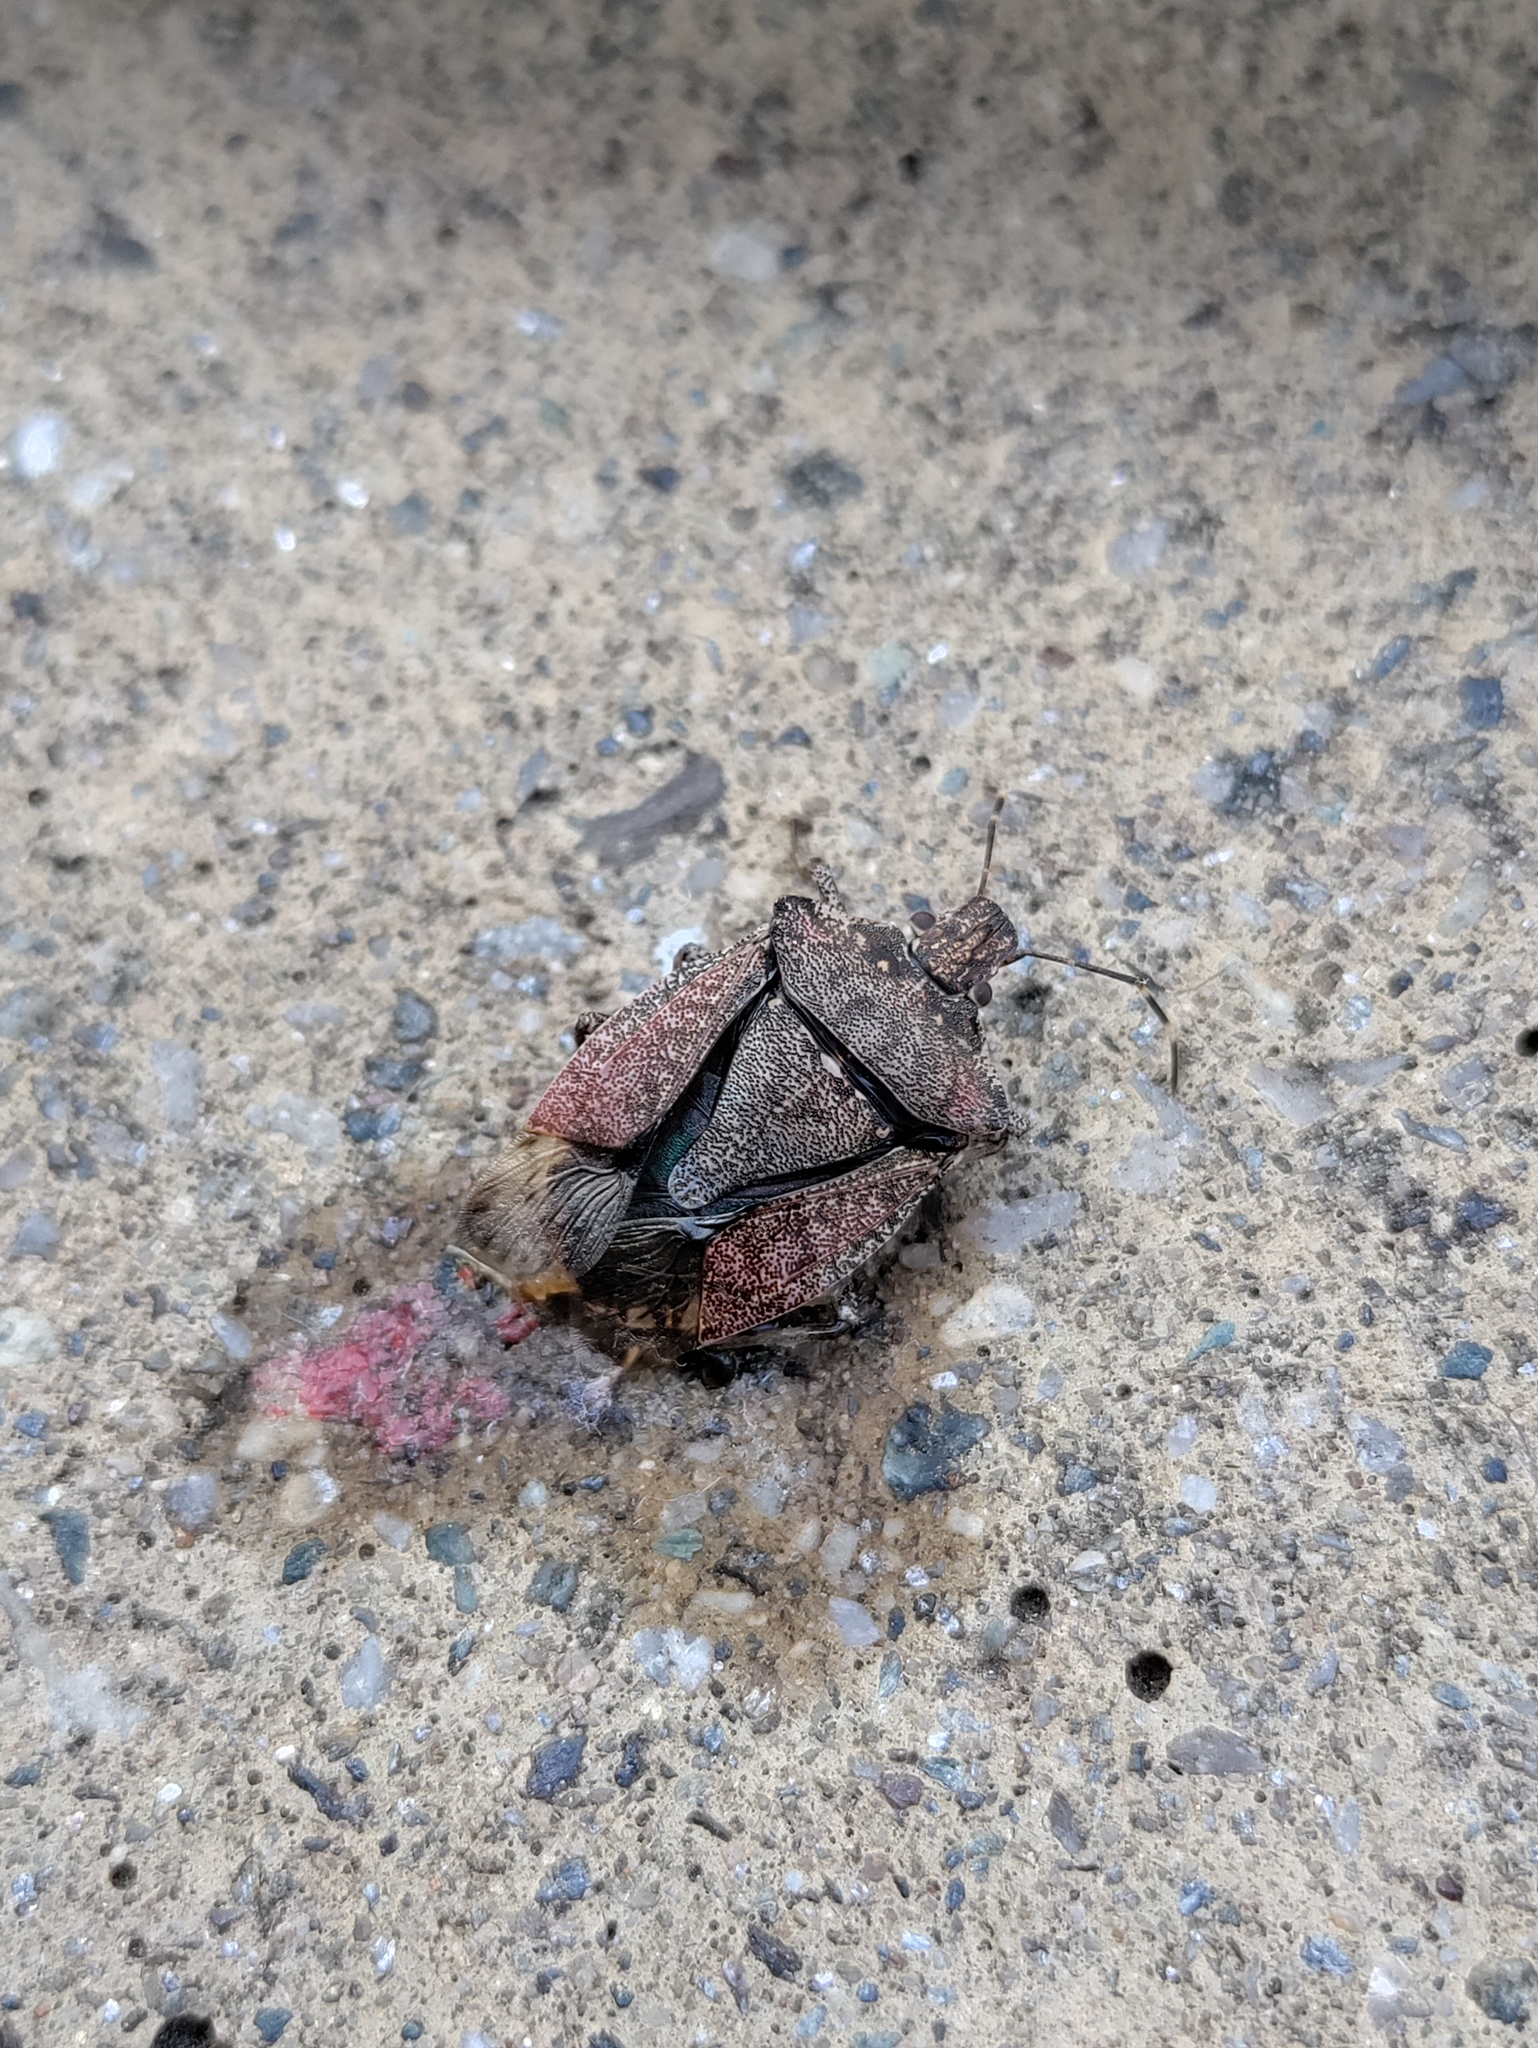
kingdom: Animalia
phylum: Arthropoda
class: Insecta
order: Hemiptera
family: Pentatomidae
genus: Halyomorpha
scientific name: Halyomorpha halys
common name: Brown marmorated stink bug
